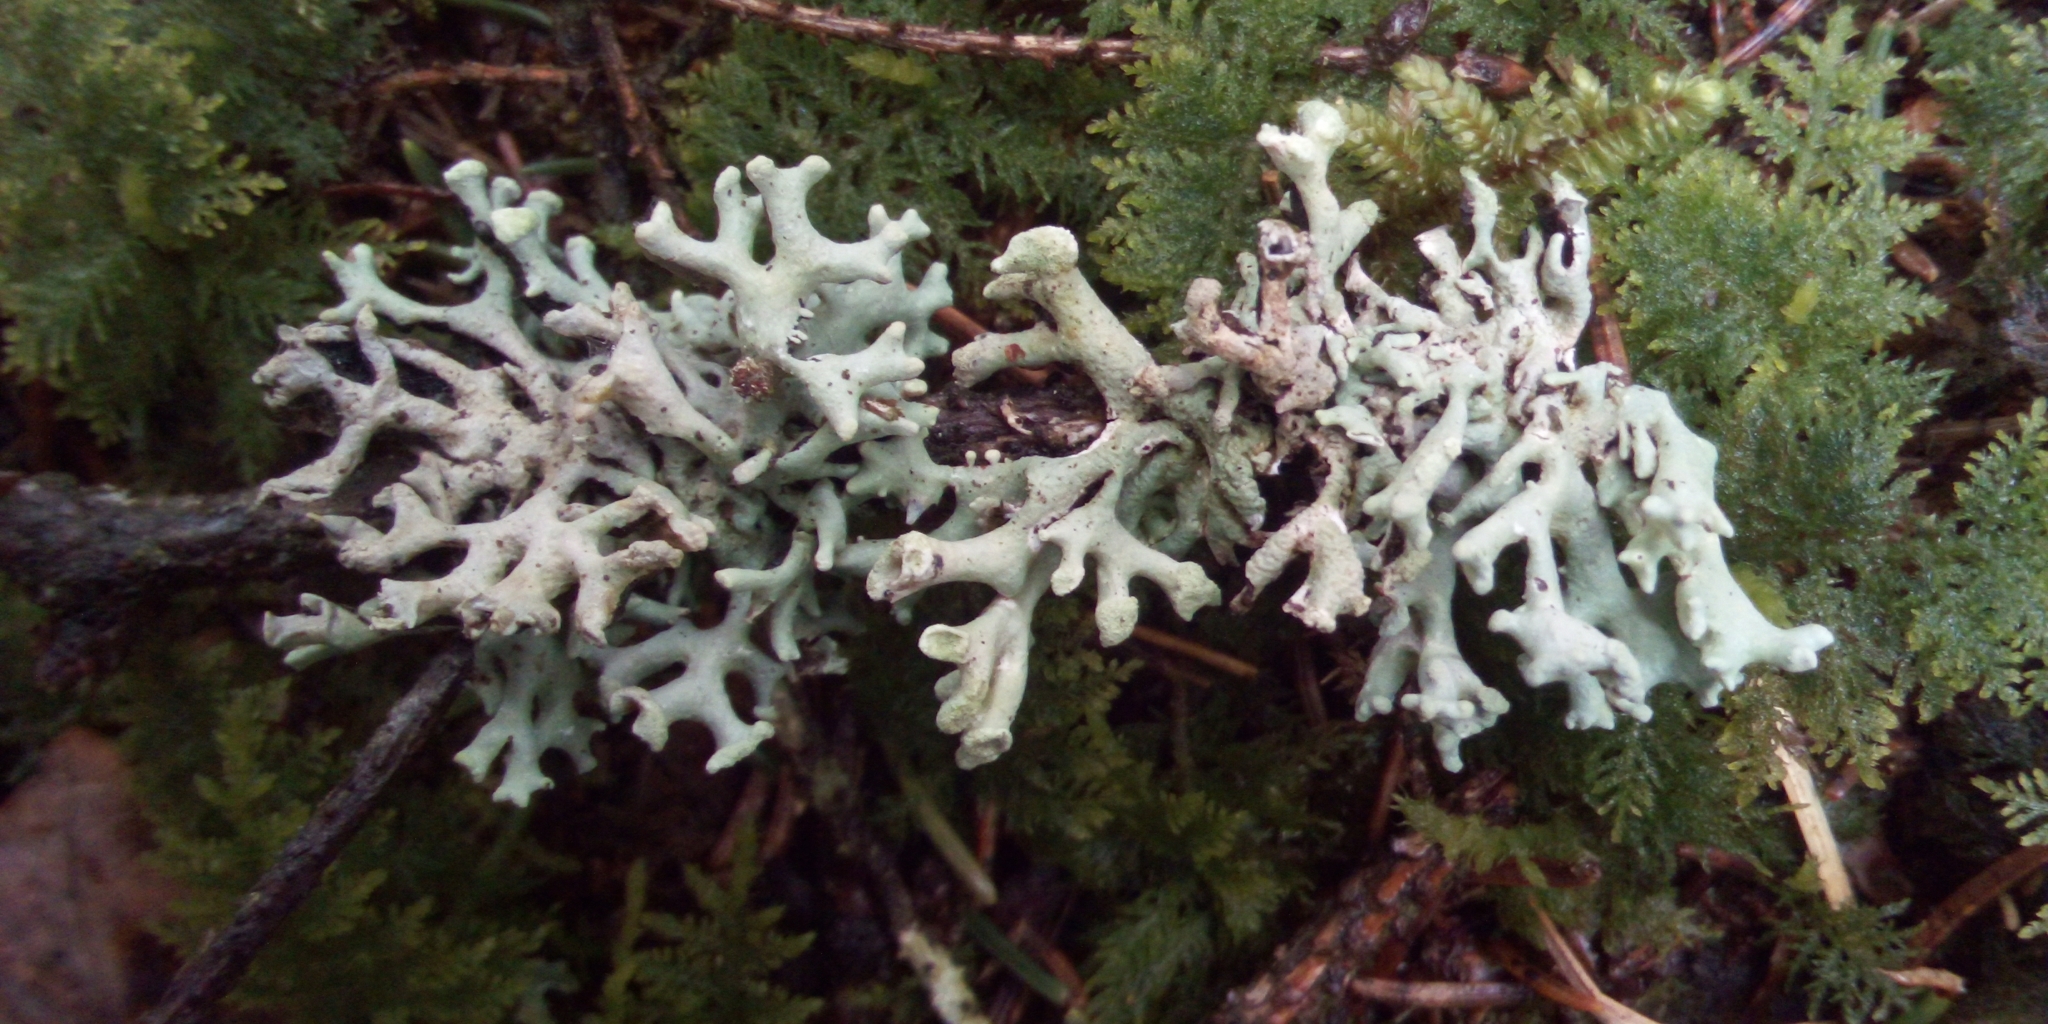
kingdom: Fungi
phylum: Ascomycota
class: Lecanoromycetes
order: Lecanorales
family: Parmeliaceae
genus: Hypogymnia
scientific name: Hypogymnia tubulosa
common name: Powder-headed tube lichen
